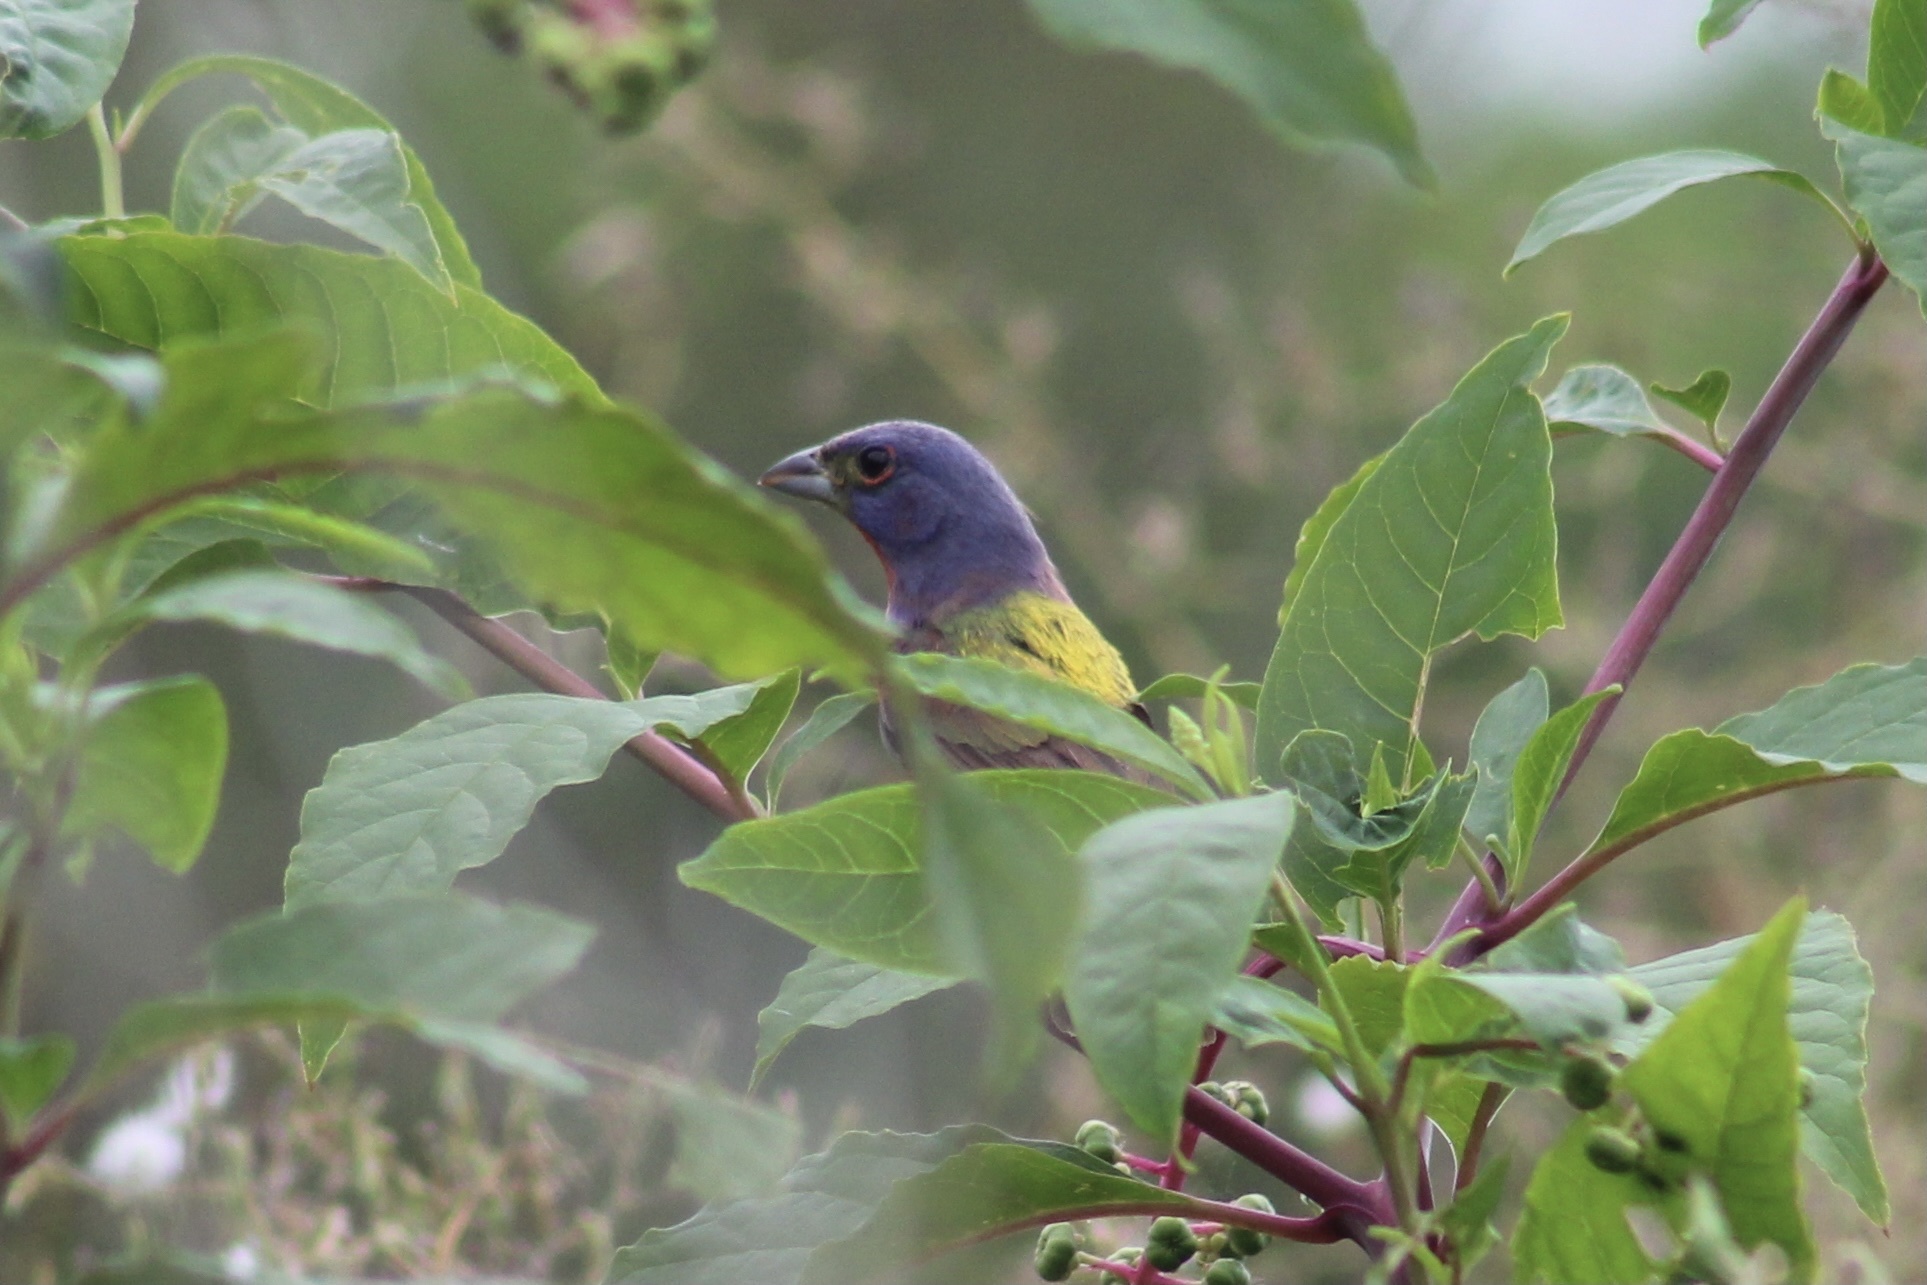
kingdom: Animalia
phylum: Chordata
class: Aves
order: Passeriformes
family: Cardinalidae
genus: Passerina
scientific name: Passerina ciris
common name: Painted bunting
